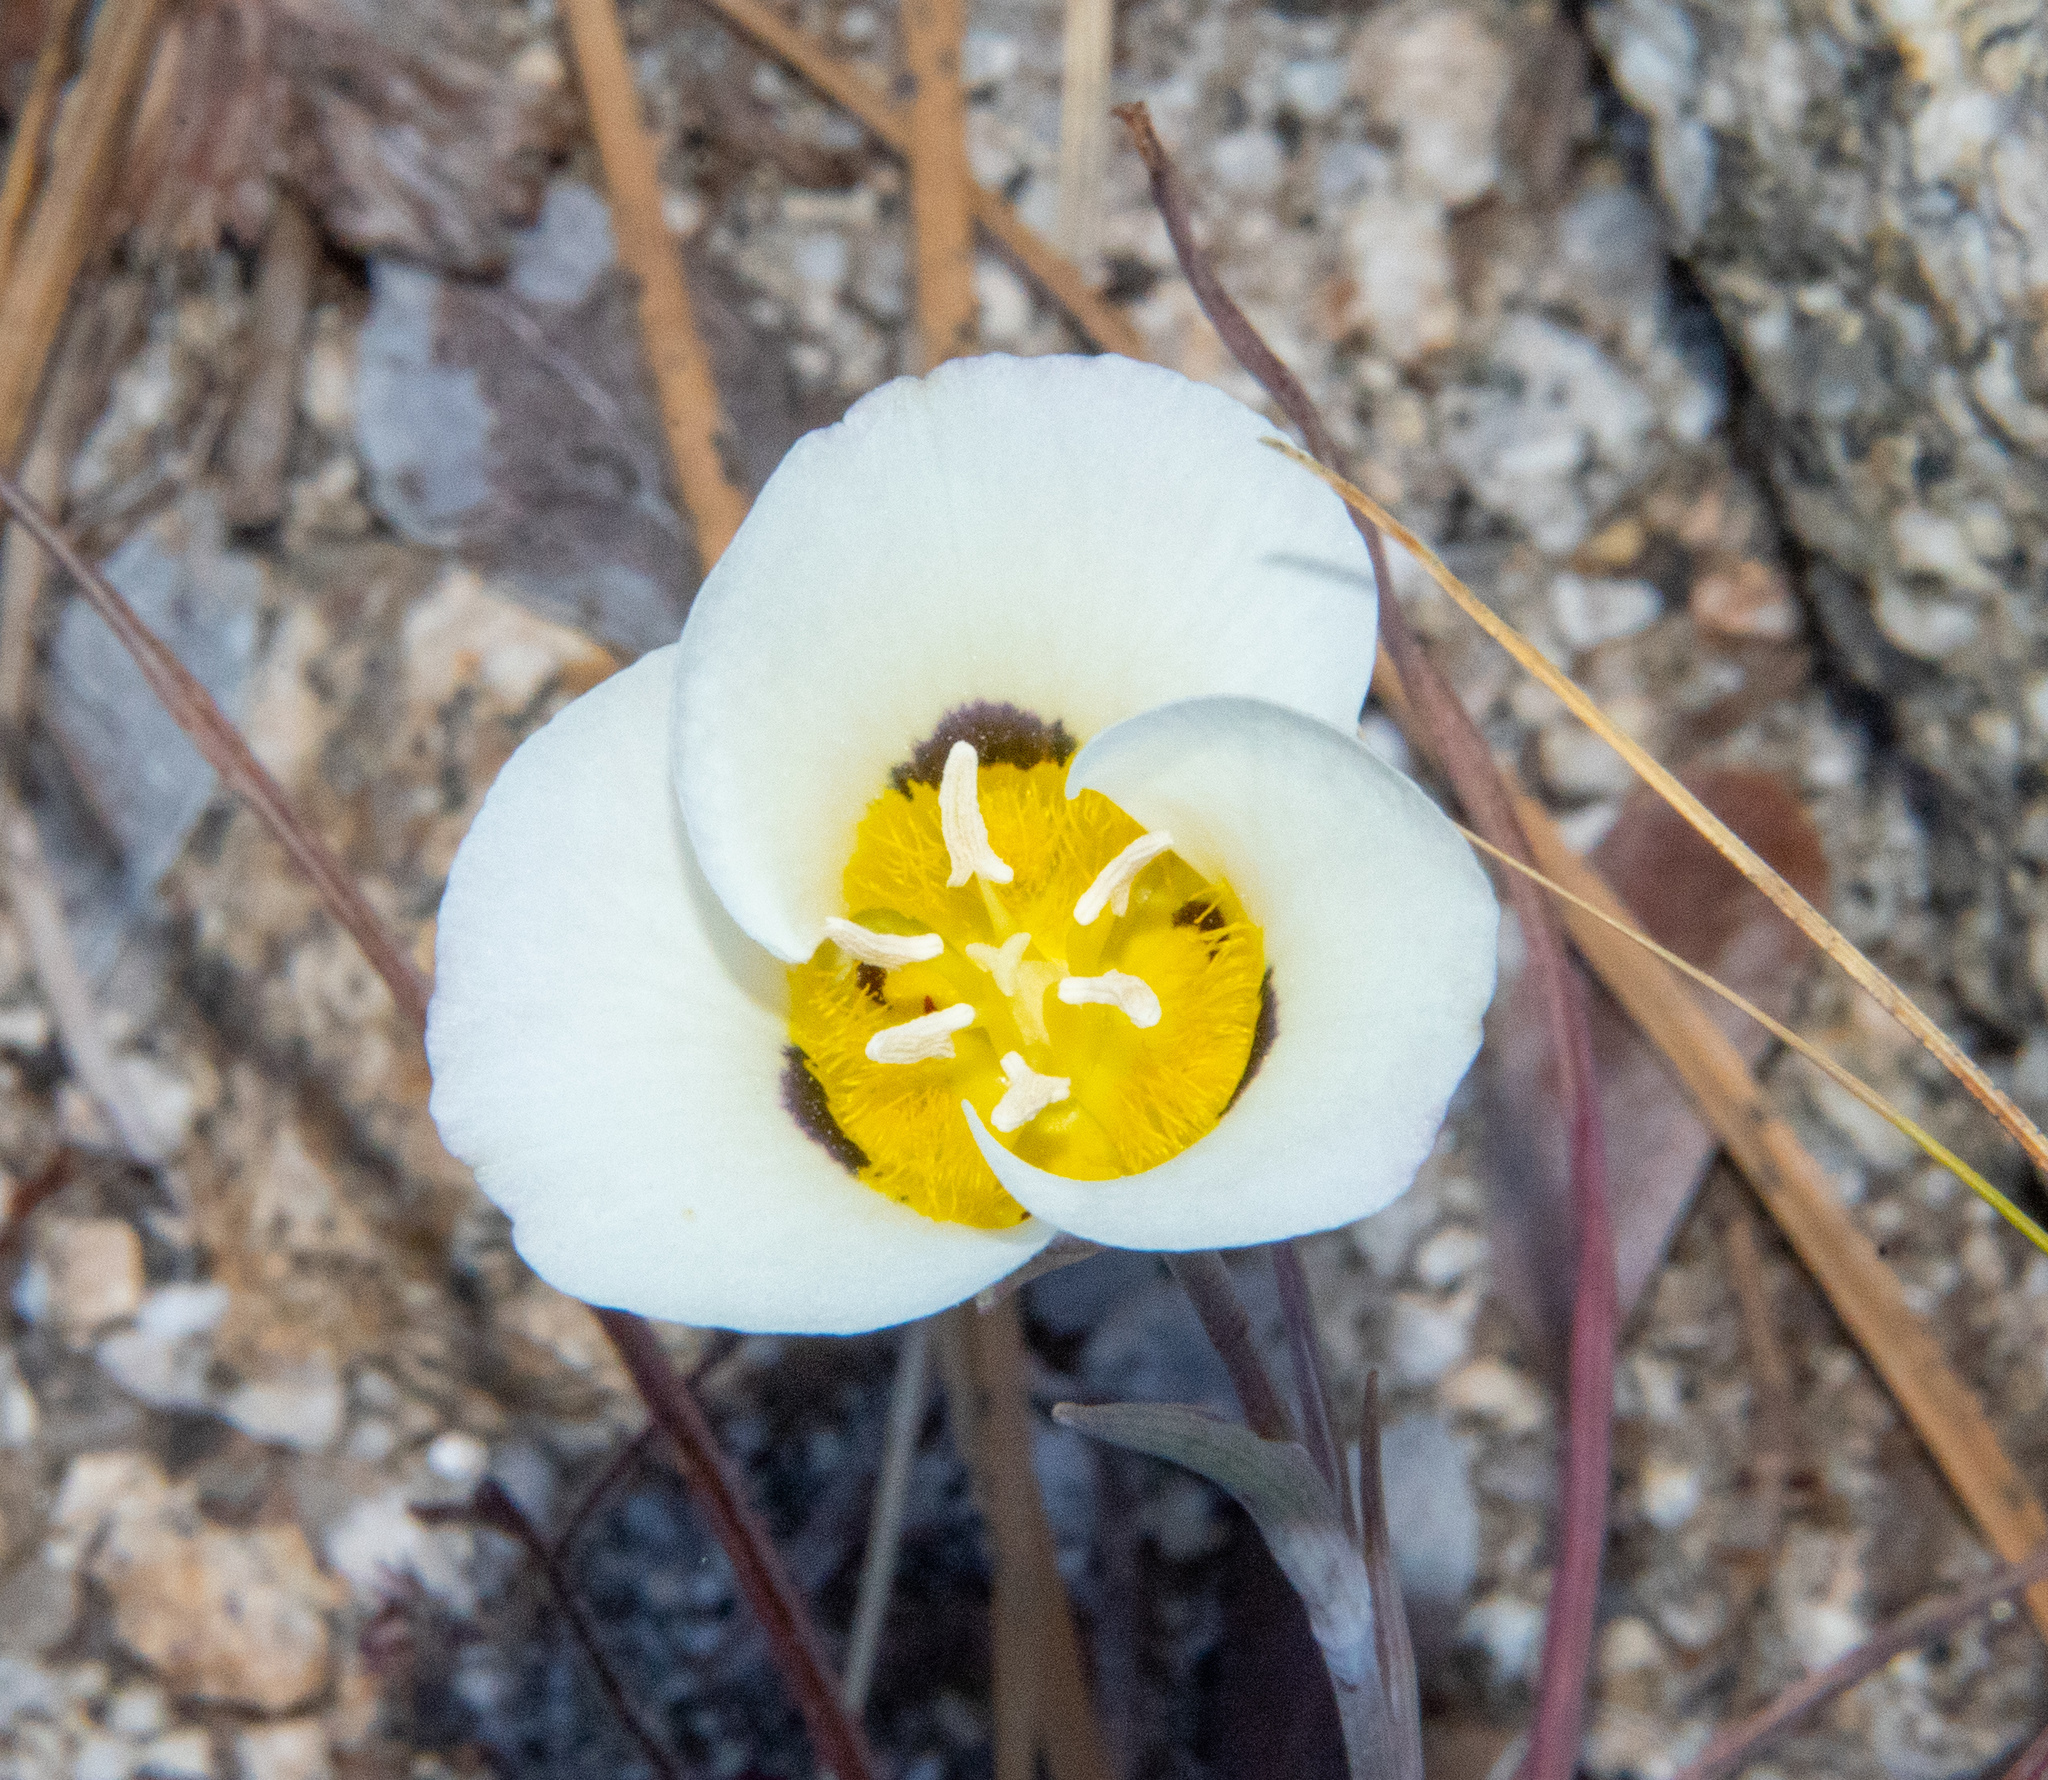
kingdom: Plantae
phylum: Tracheophyta
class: Liliopsida
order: Liliales
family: Liliaceae
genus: Calochortus
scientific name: Calochortus leichtlinii
